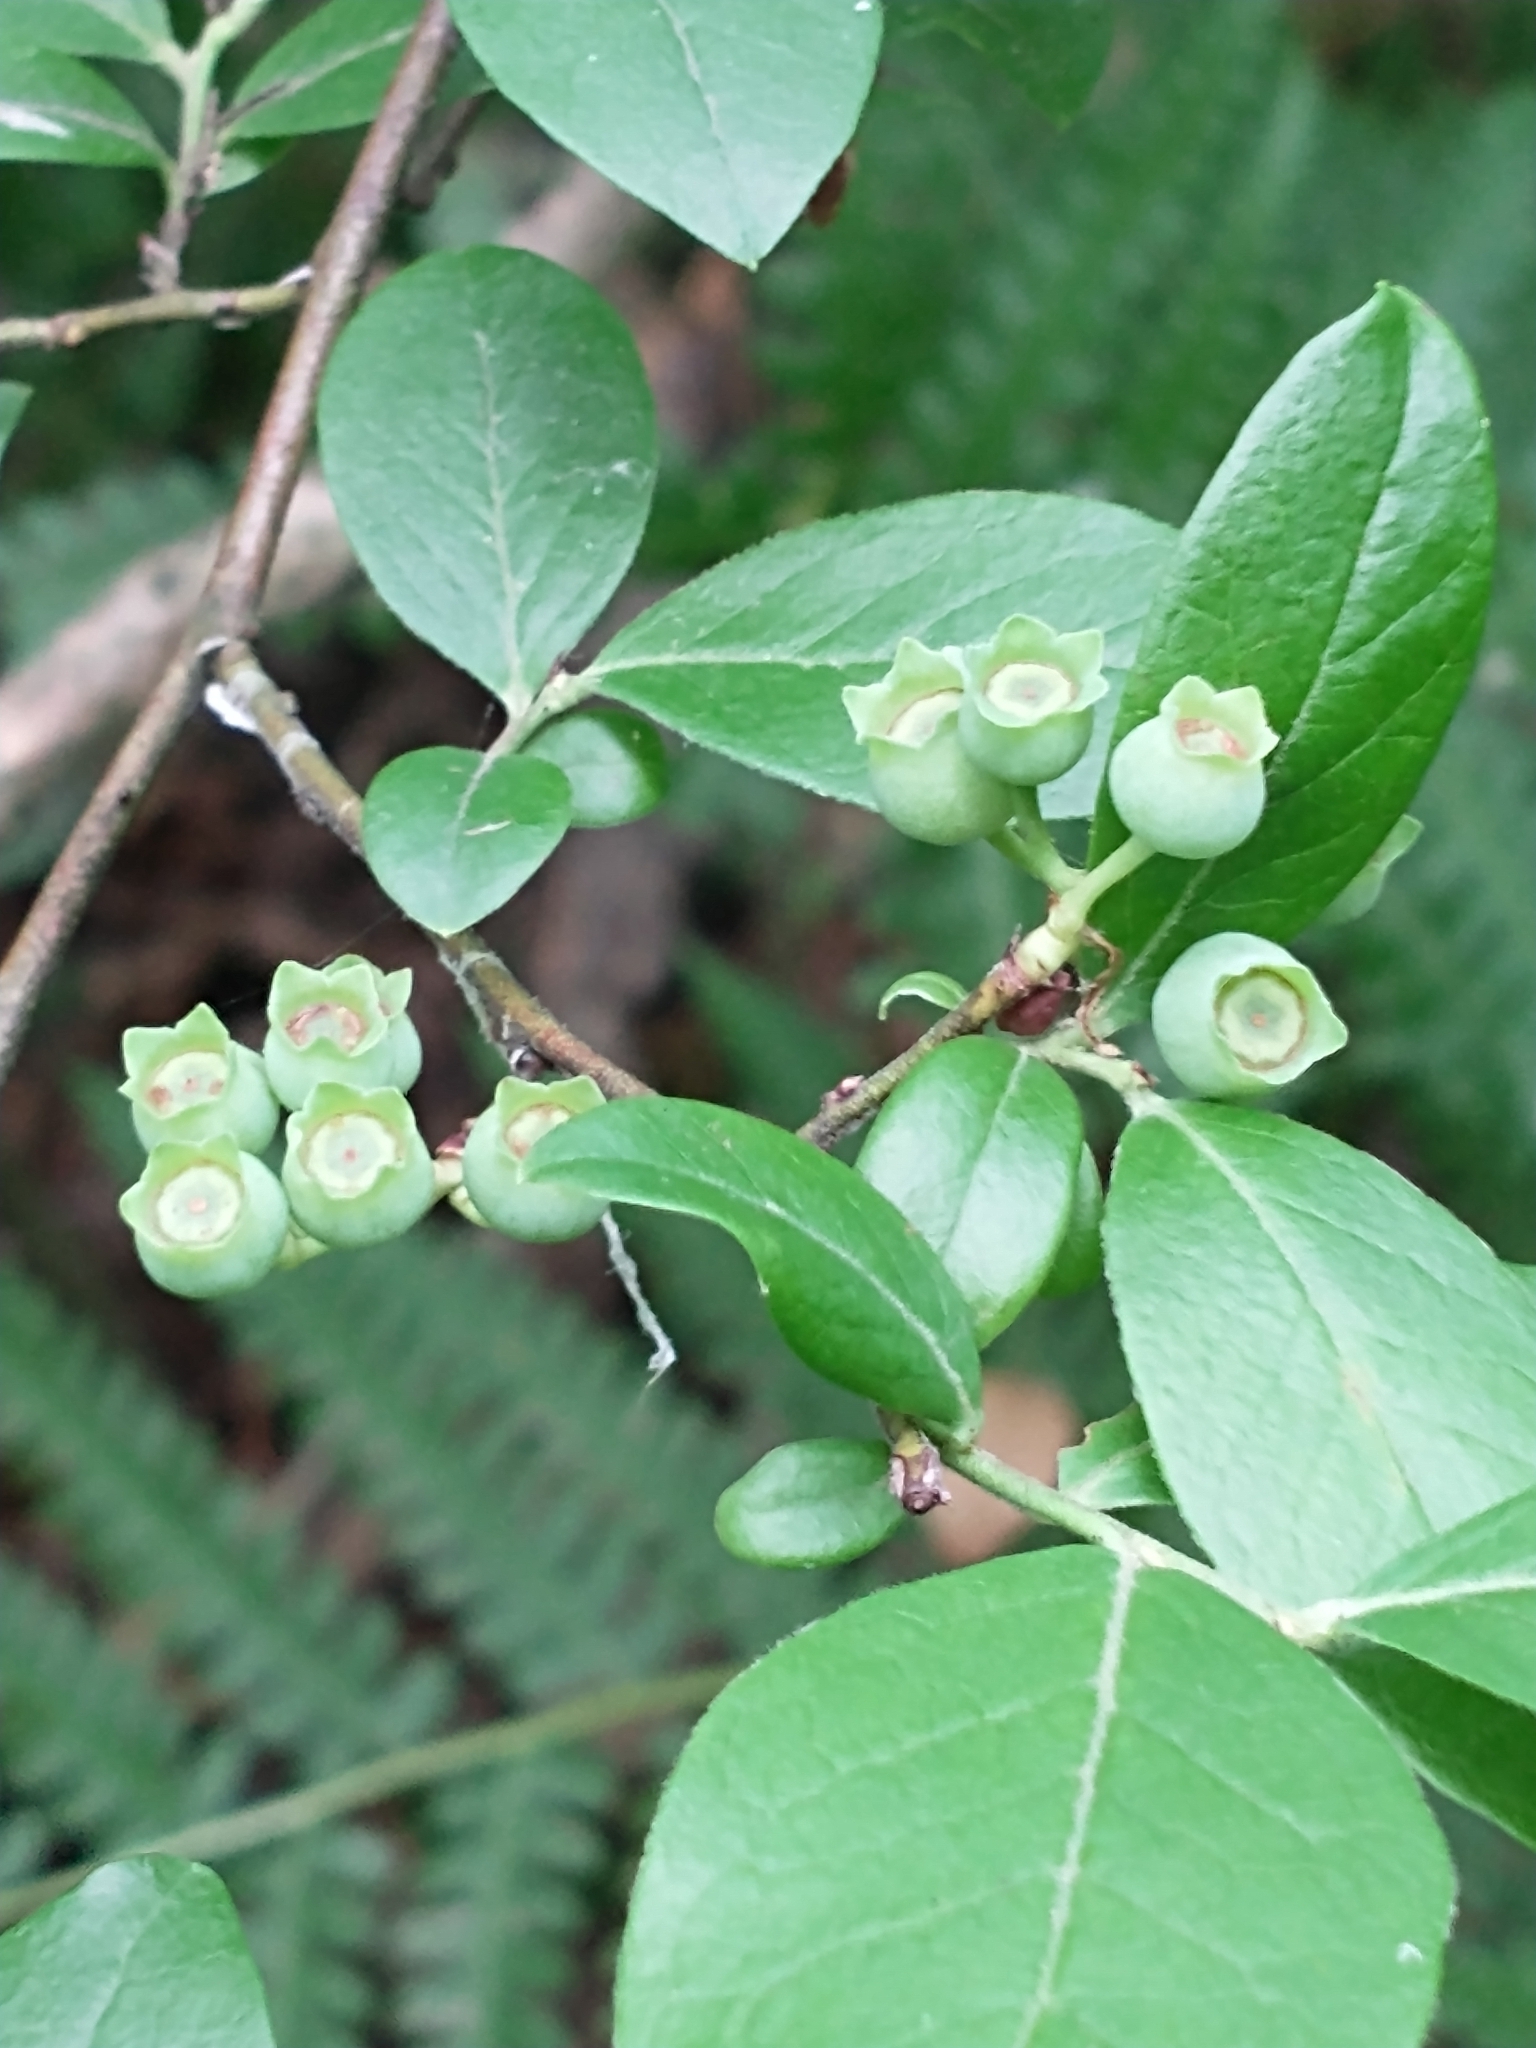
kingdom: Plantae
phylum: Tracheophyta
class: Magnoliopsida
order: Ericales
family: Ericaceae
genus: Vaccinium
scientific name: Vaccinium corymbosum
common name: Blueberry
